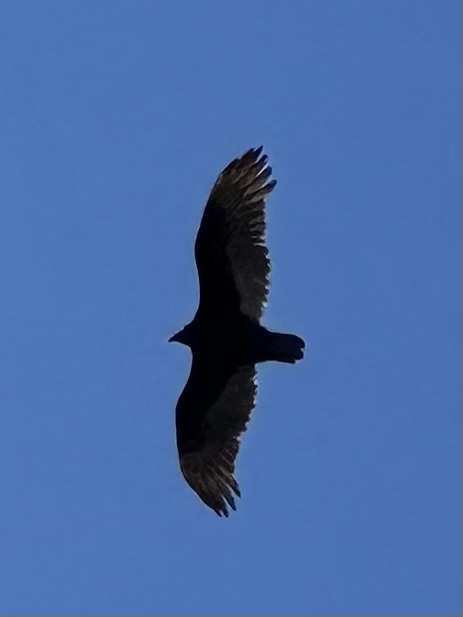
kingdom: Animalia
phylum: Chordata
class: Aves
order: Accipitriformes
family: Cathartidae
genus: Cathartes
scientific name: Cathartes aura
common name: Turkey vulture
